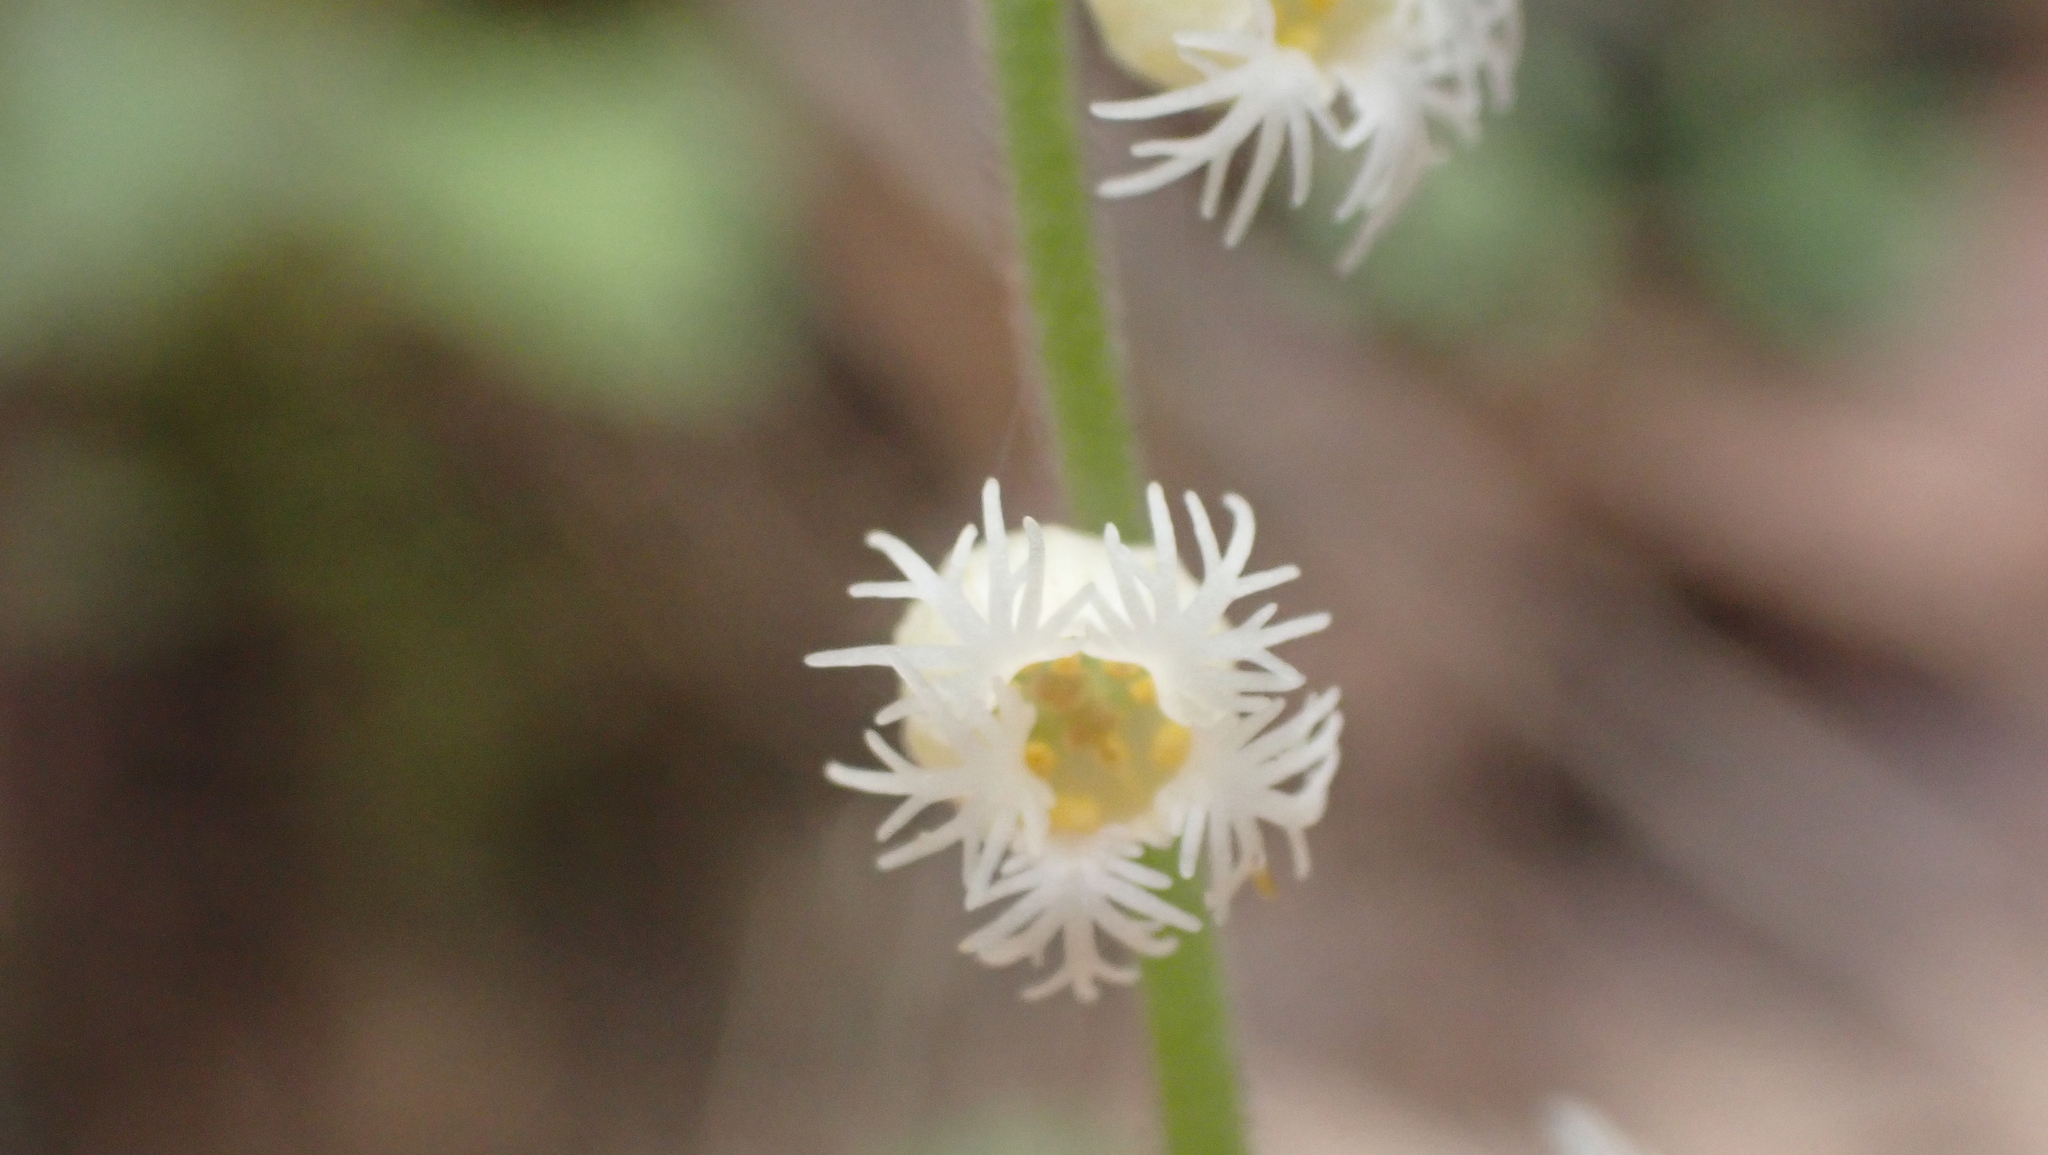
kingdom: Plantae
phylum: Tracheophyta
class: Magnoliopsida
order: Saxifragales
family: Saxifragaceae
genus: Mitella
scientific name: Mitella diphylla
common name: Coolwort
